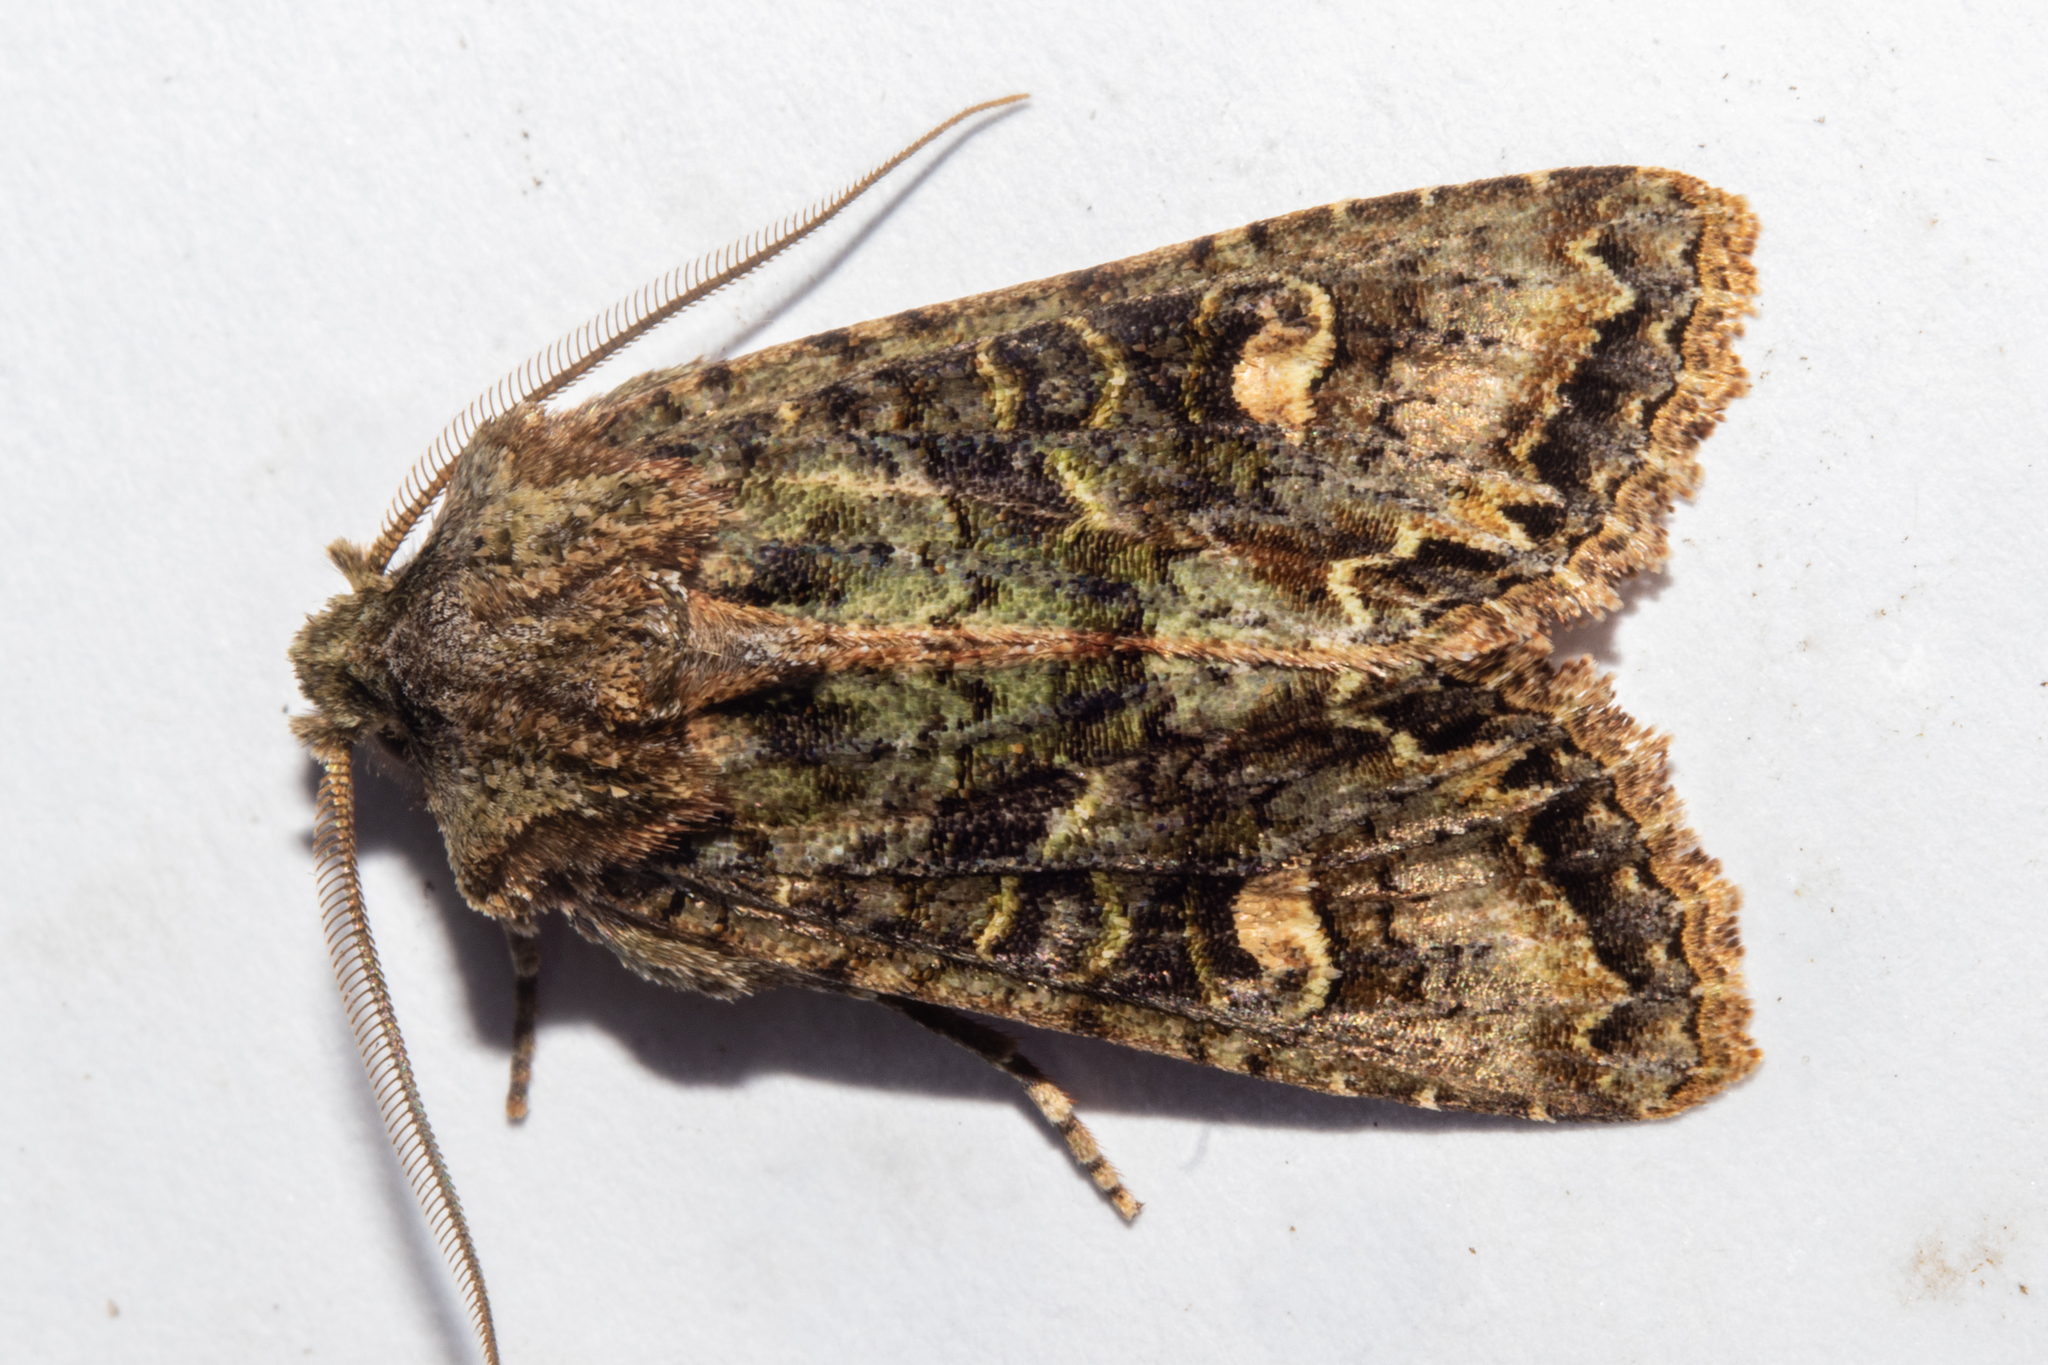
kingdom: Animalia
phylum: Arthropoda
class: Insecta
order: Lepidoptera
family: Noctuidae
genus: Ichneutica
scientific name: Ichneutica insignis
